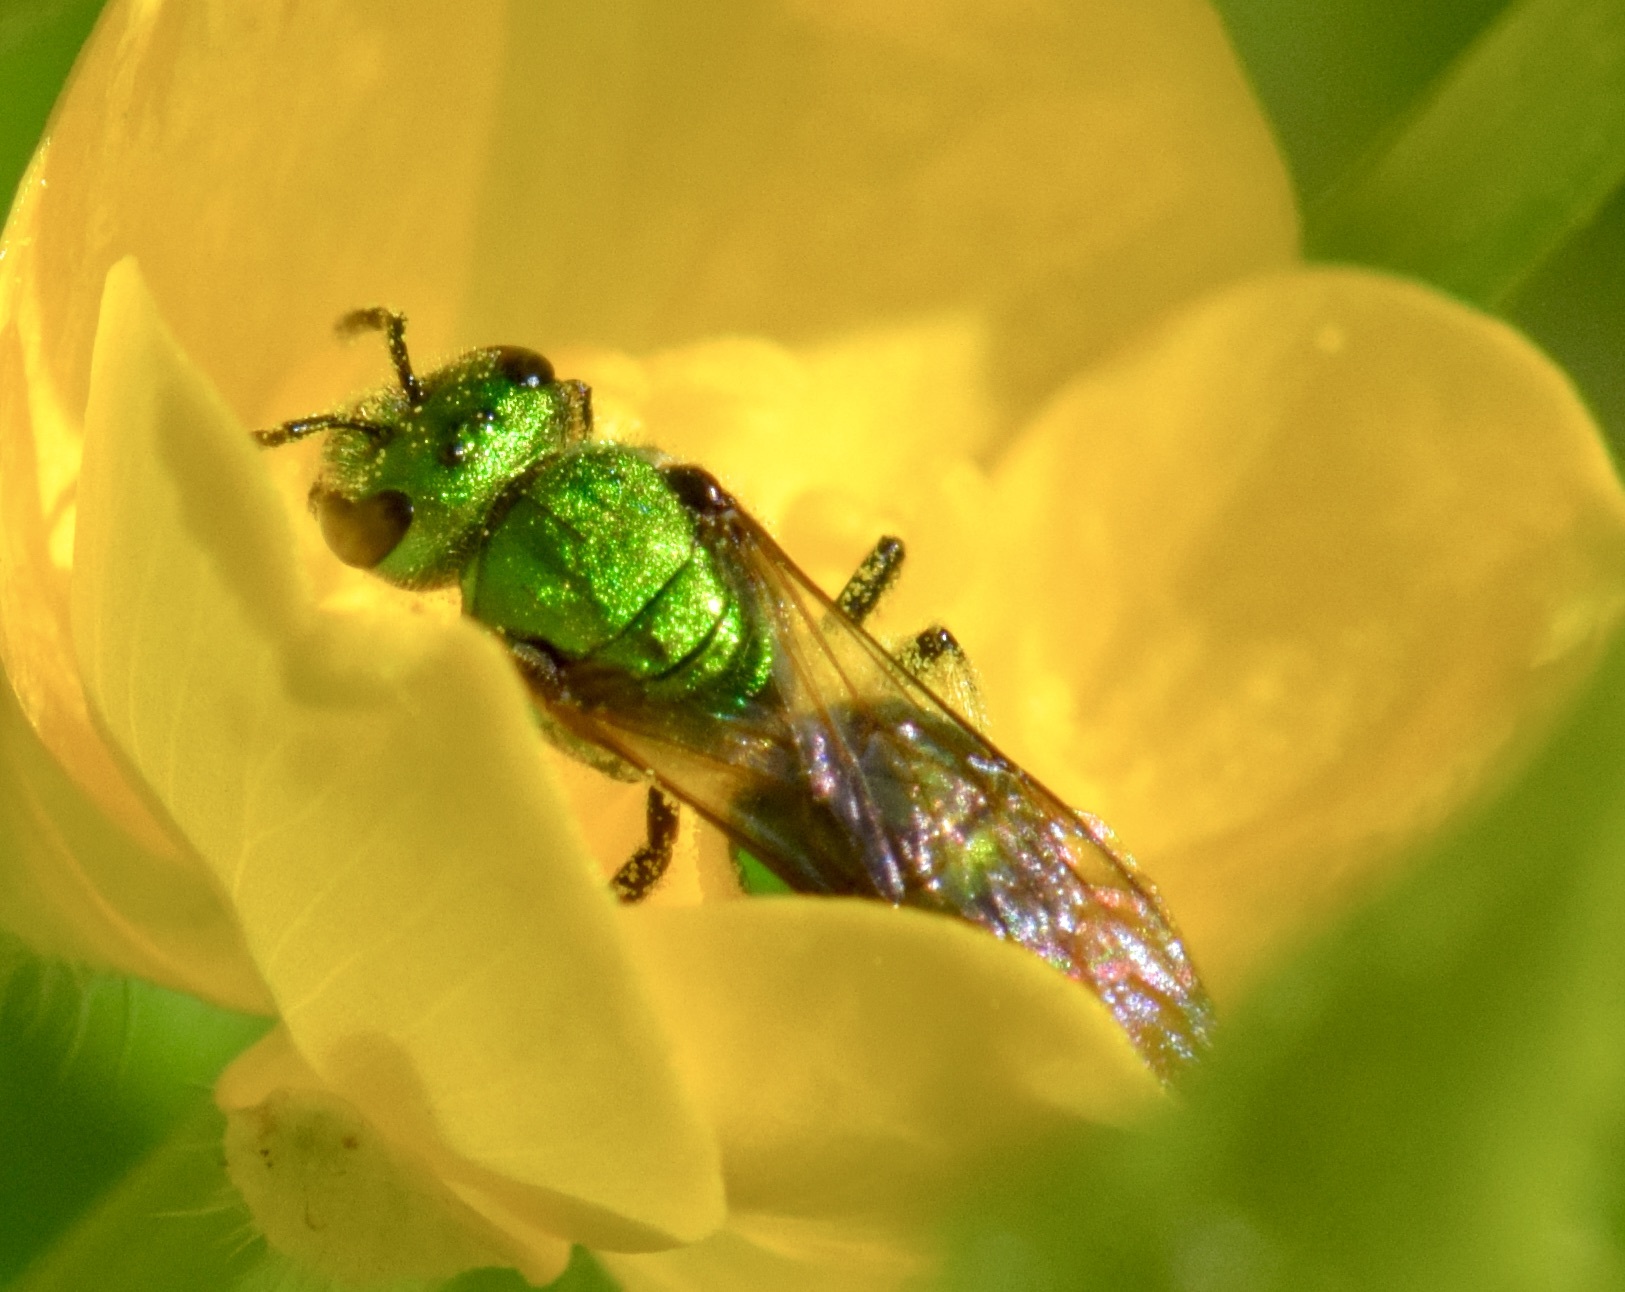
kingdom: Animalia
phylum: Arthropoda
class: Insecta
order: Hymenoptera
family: Halictidae
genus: Augochlora
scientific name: Augochlora pura
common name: Pure green sweat bee
